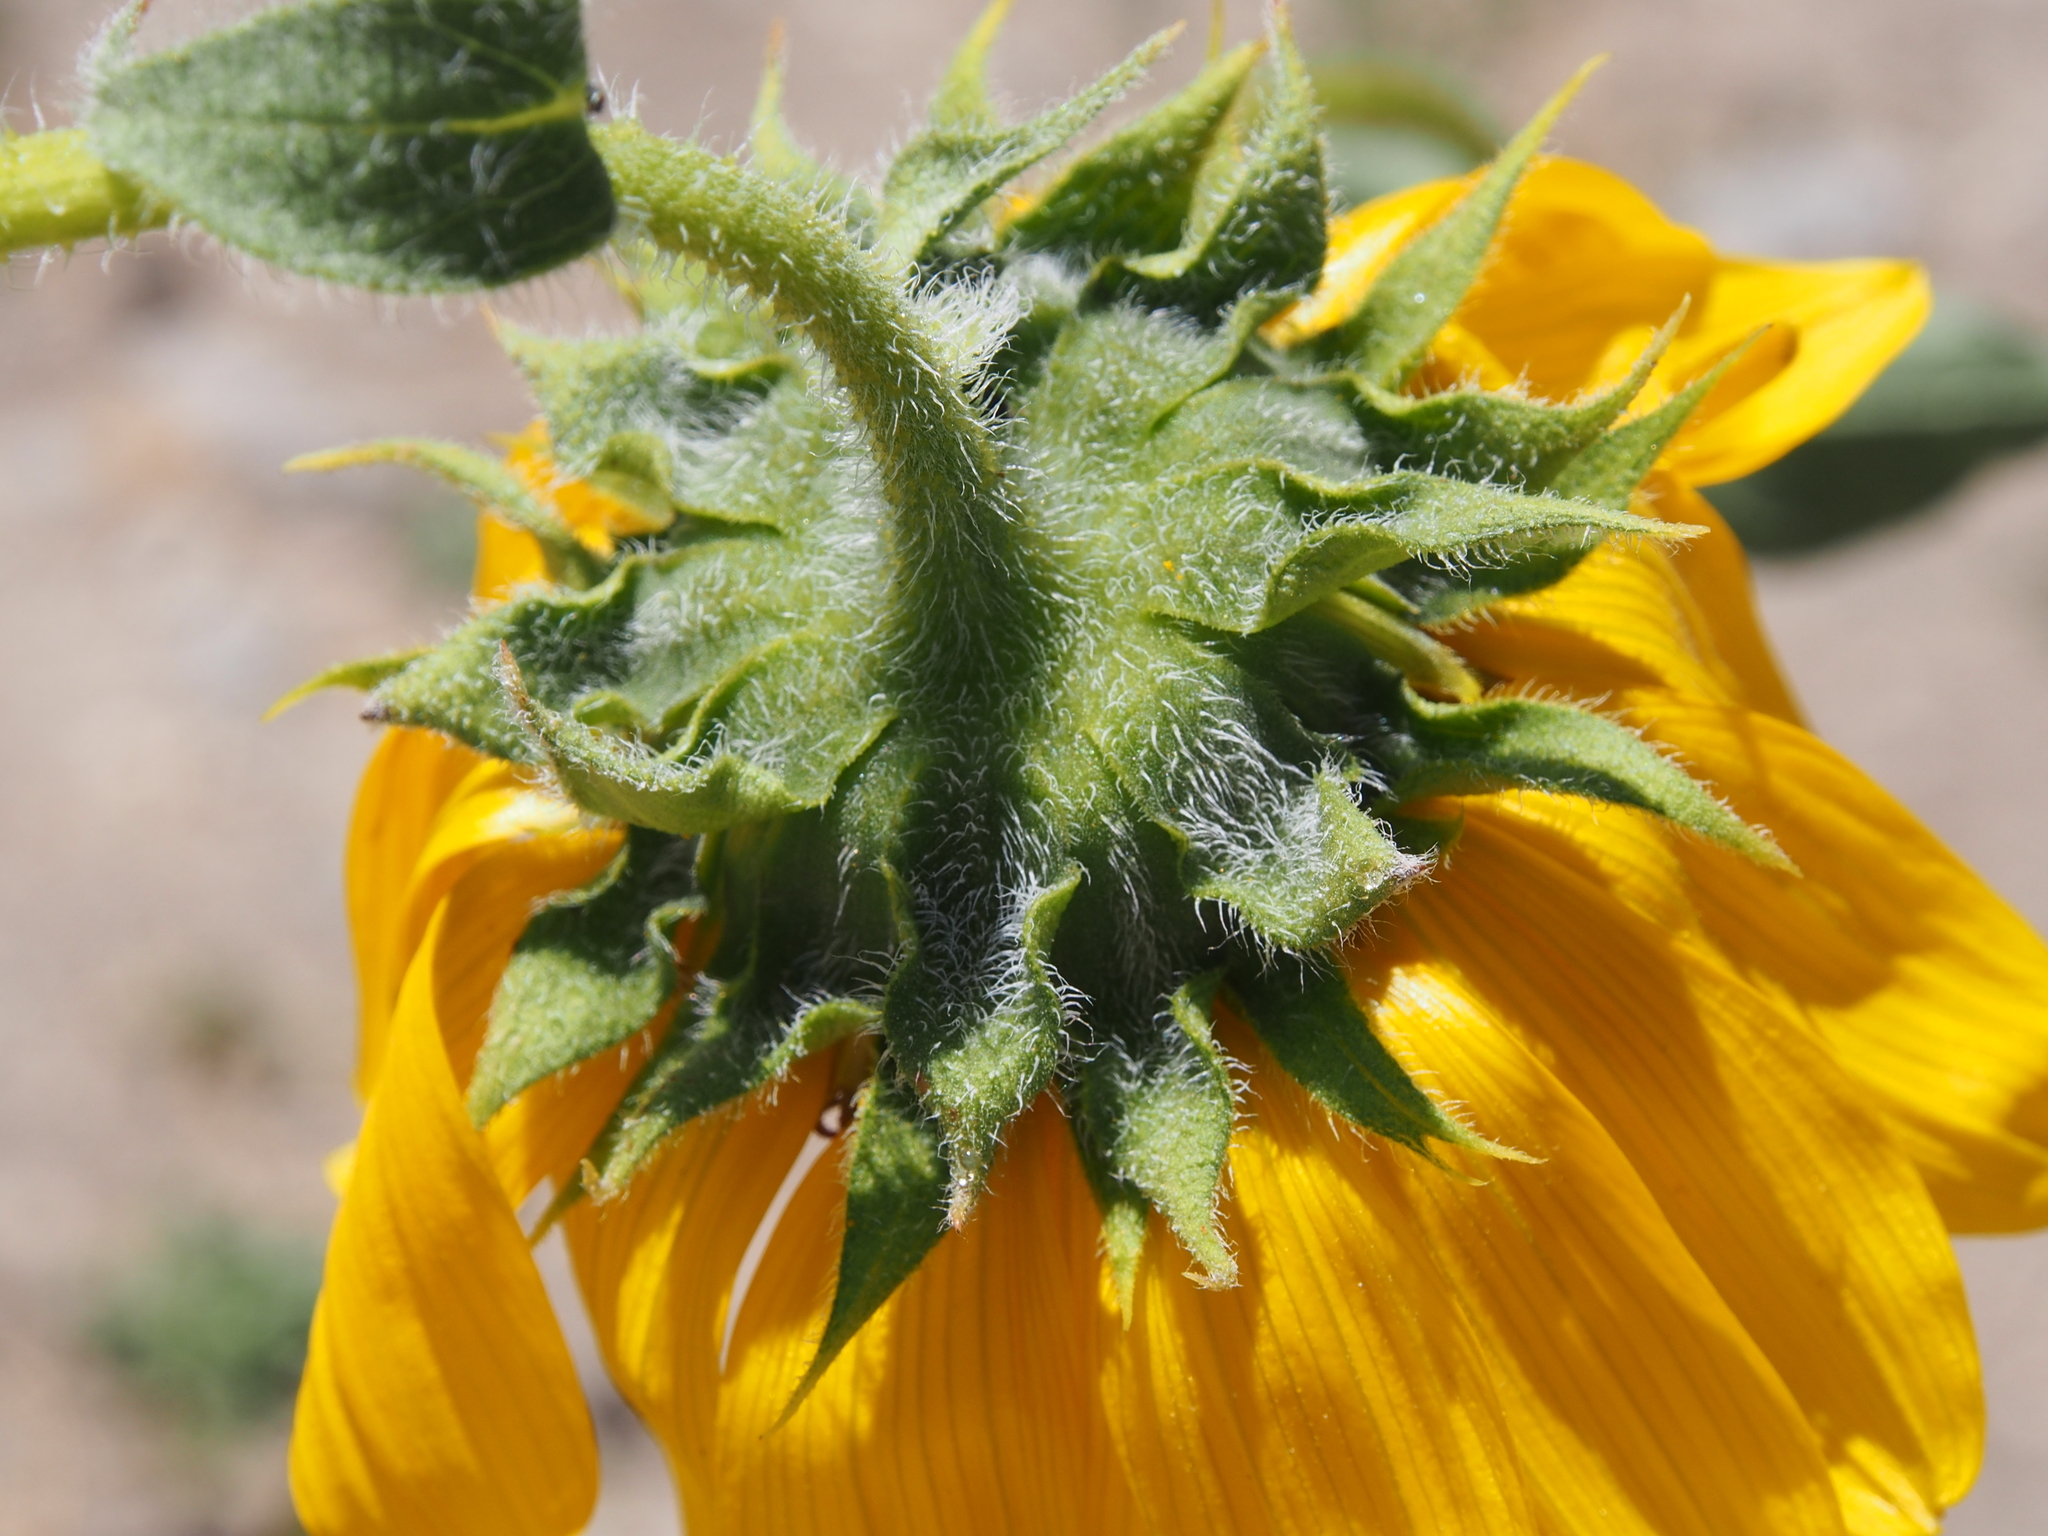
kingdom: Plantae
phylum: Tracheophyta
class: Magnoliopsida
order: Asterales
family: Asteraceae
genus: Helianthus
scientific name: Helianthus annuus
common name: Sunflower
